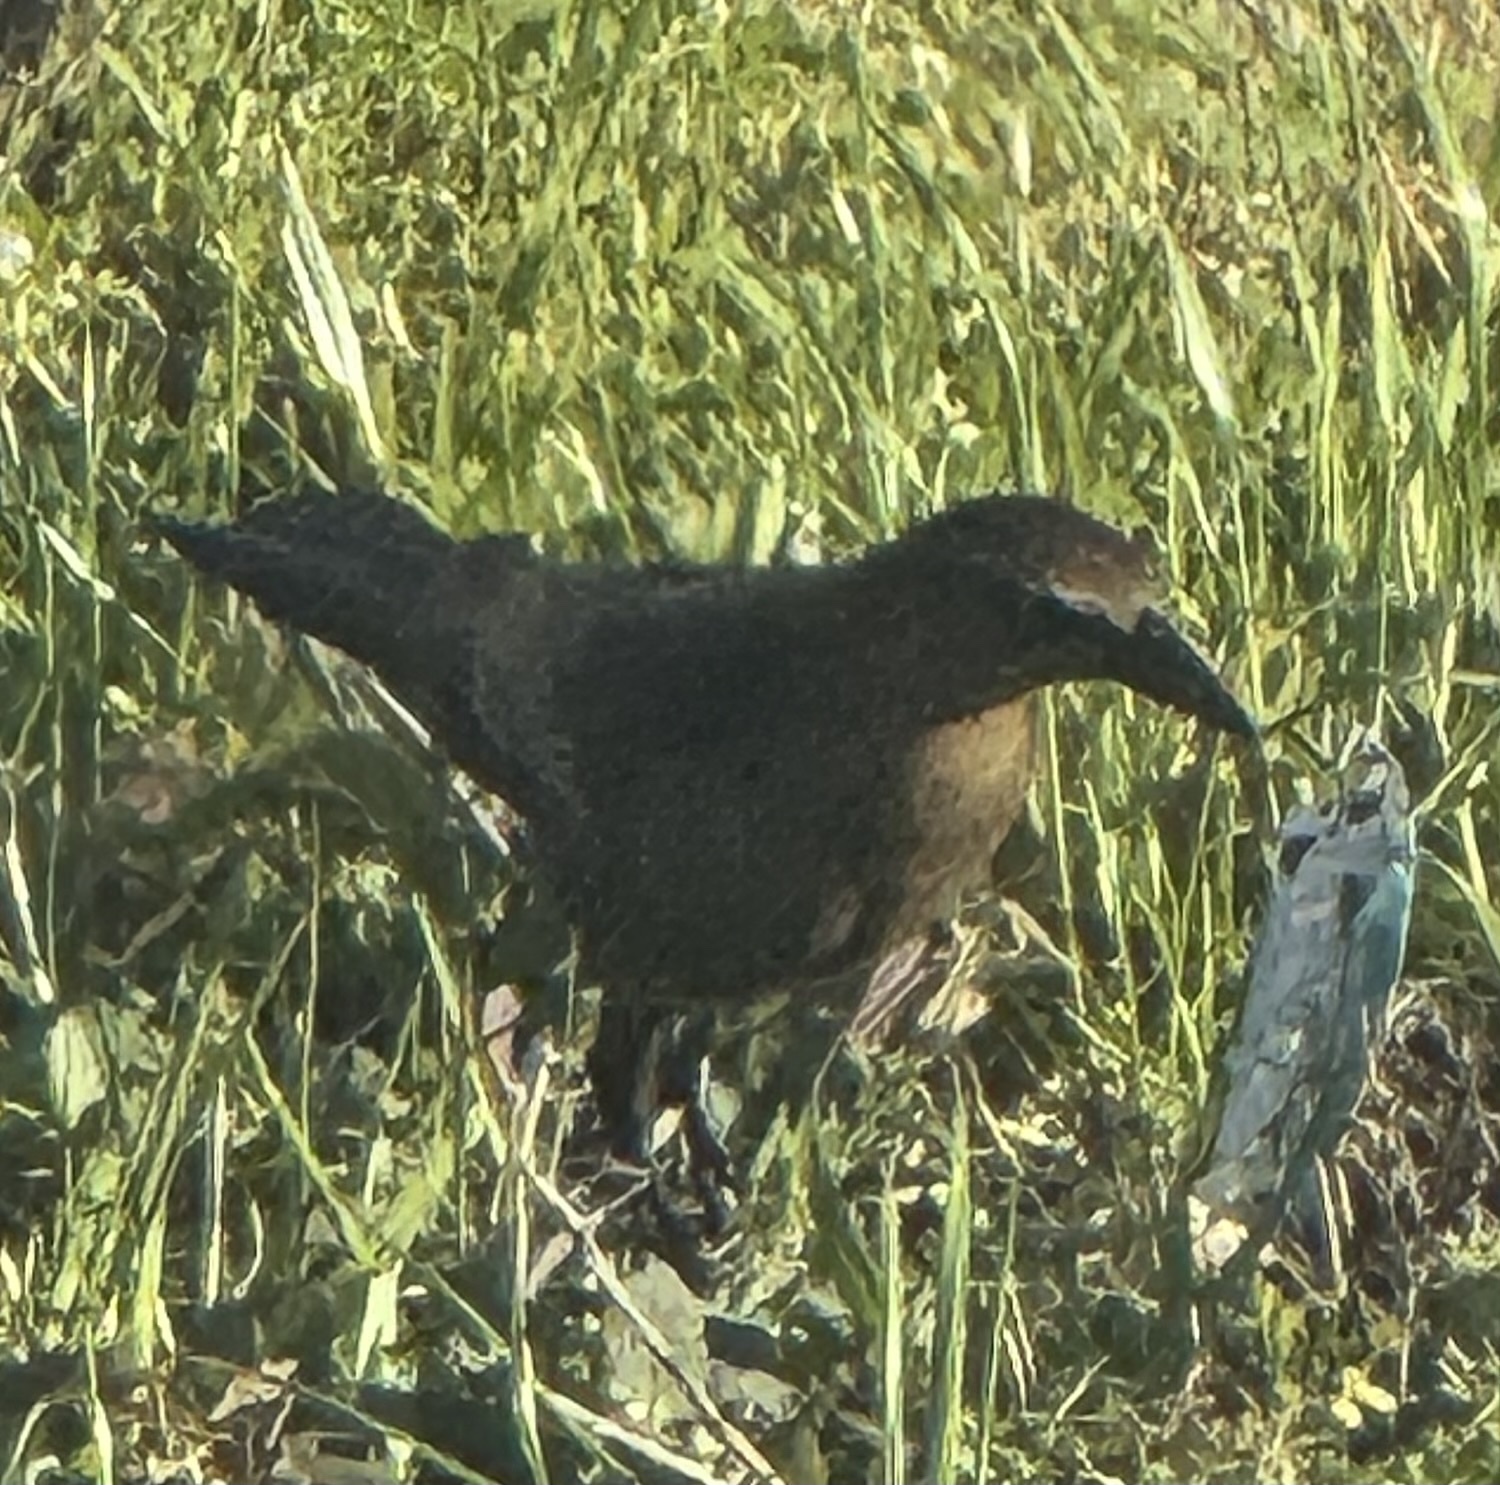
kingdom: Animalia
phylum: Chordata
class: Aves
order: Passeriformes
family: Icteridae
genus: Quiscalus
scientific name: Quiscalus mexicanus
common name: Great-tailed grackle
